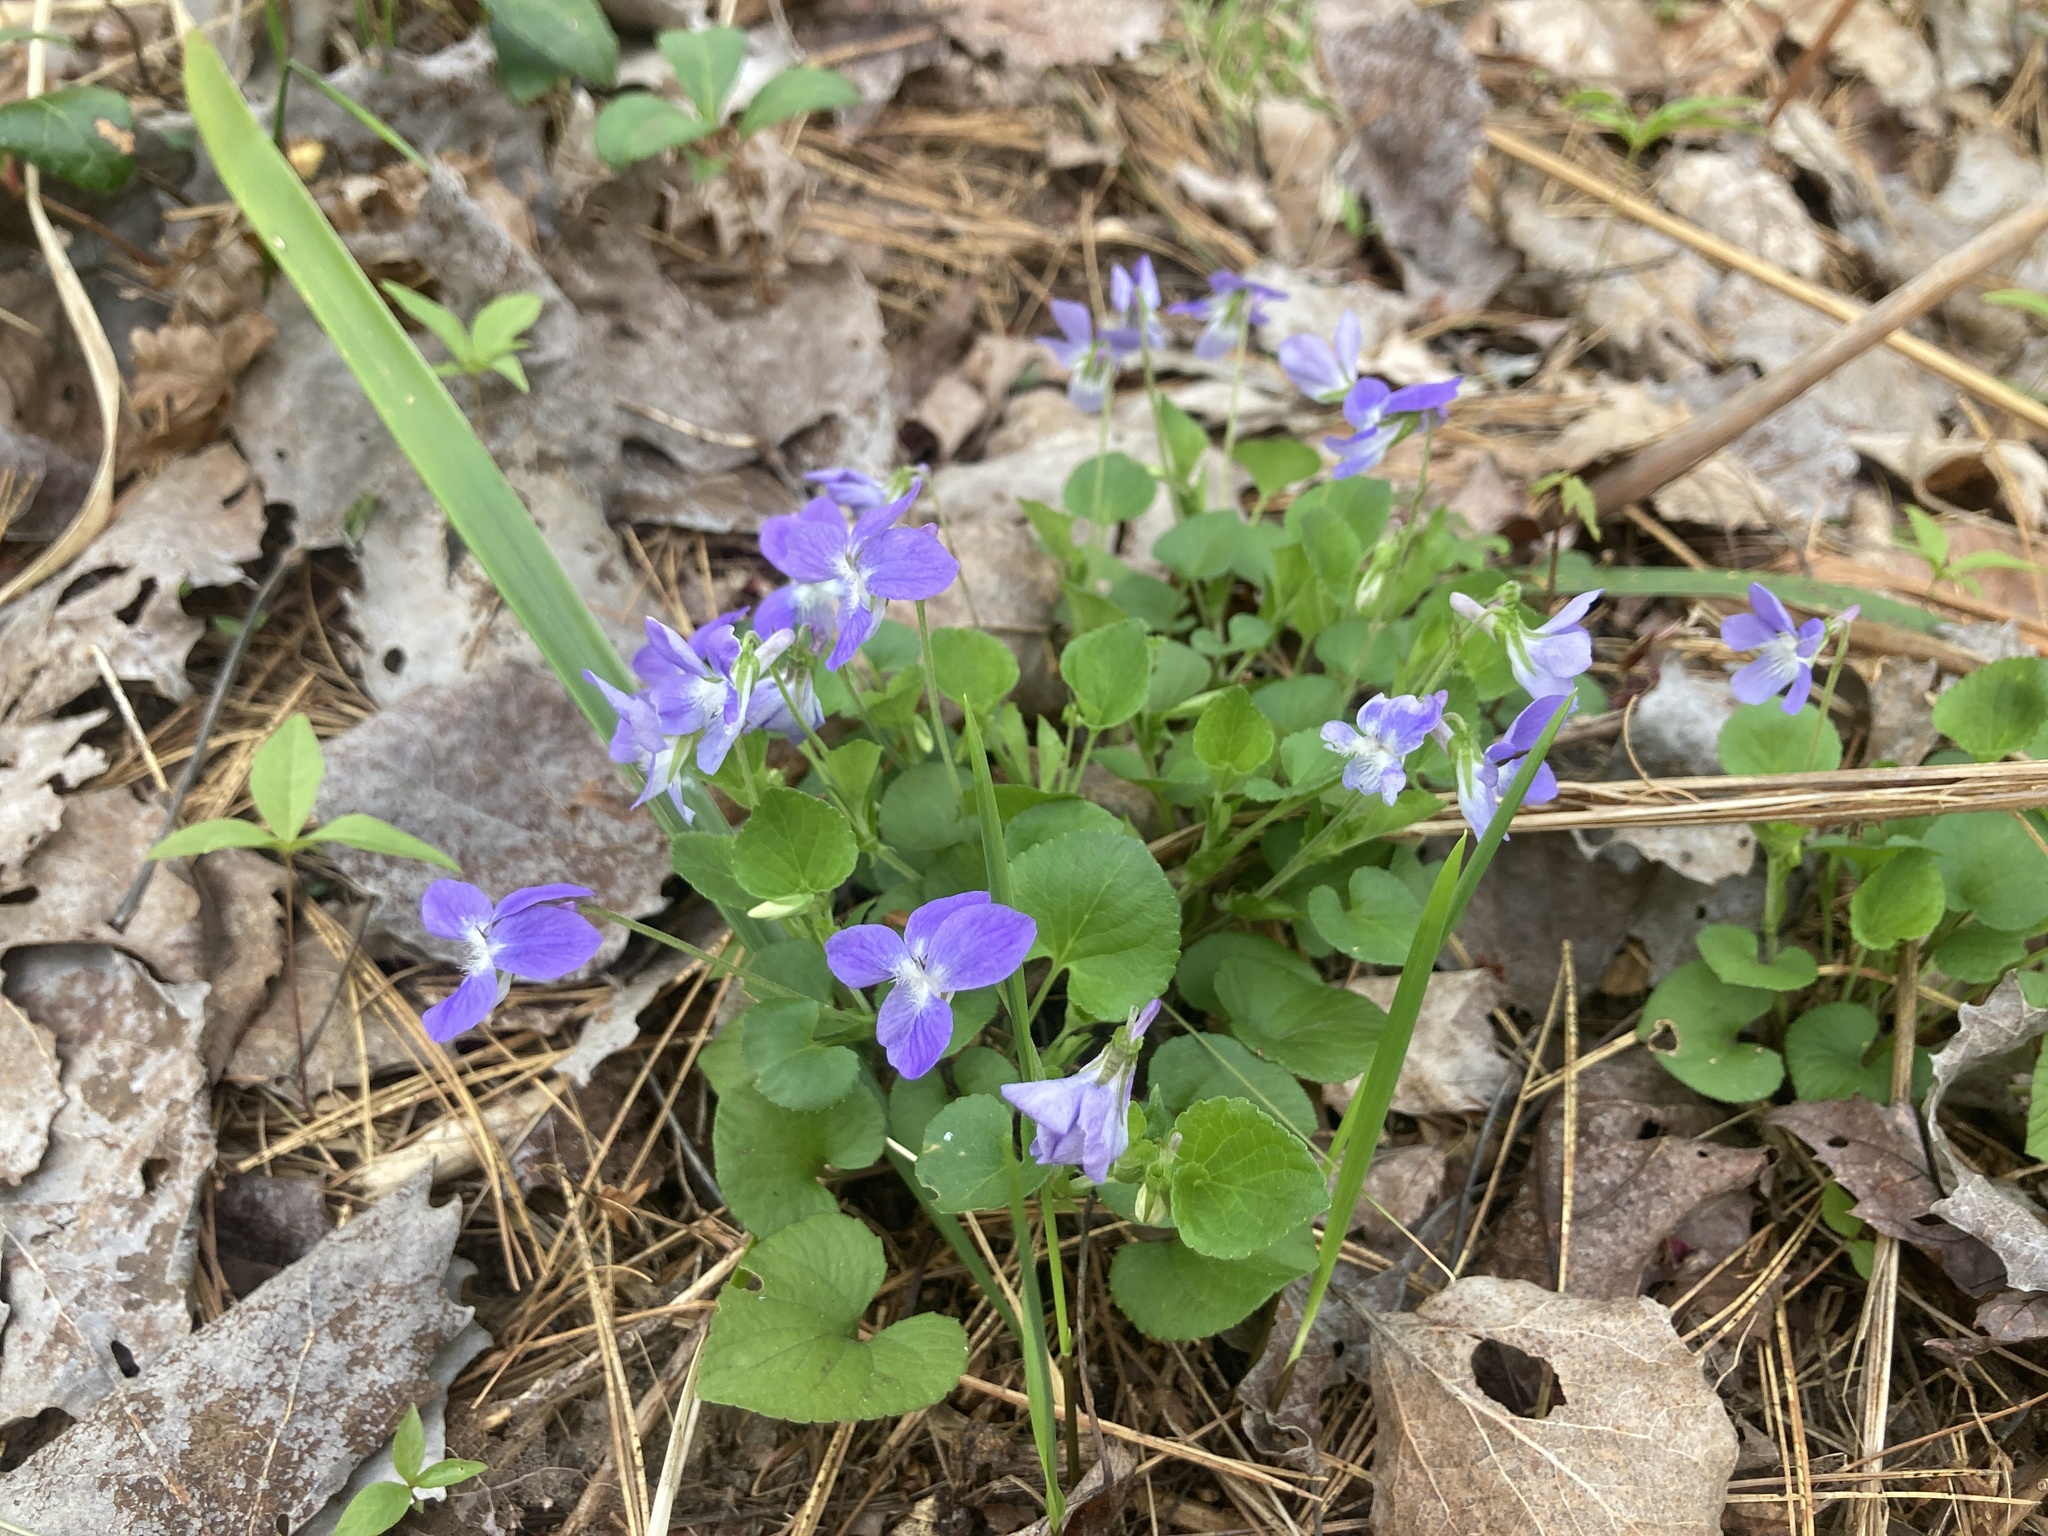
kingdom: Plantae
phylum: Tracheophyta
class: Magnoliopsida
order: Malpighiales
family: Violaceae
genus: Viola
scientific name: Viola labradorica
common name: Labrador violet
